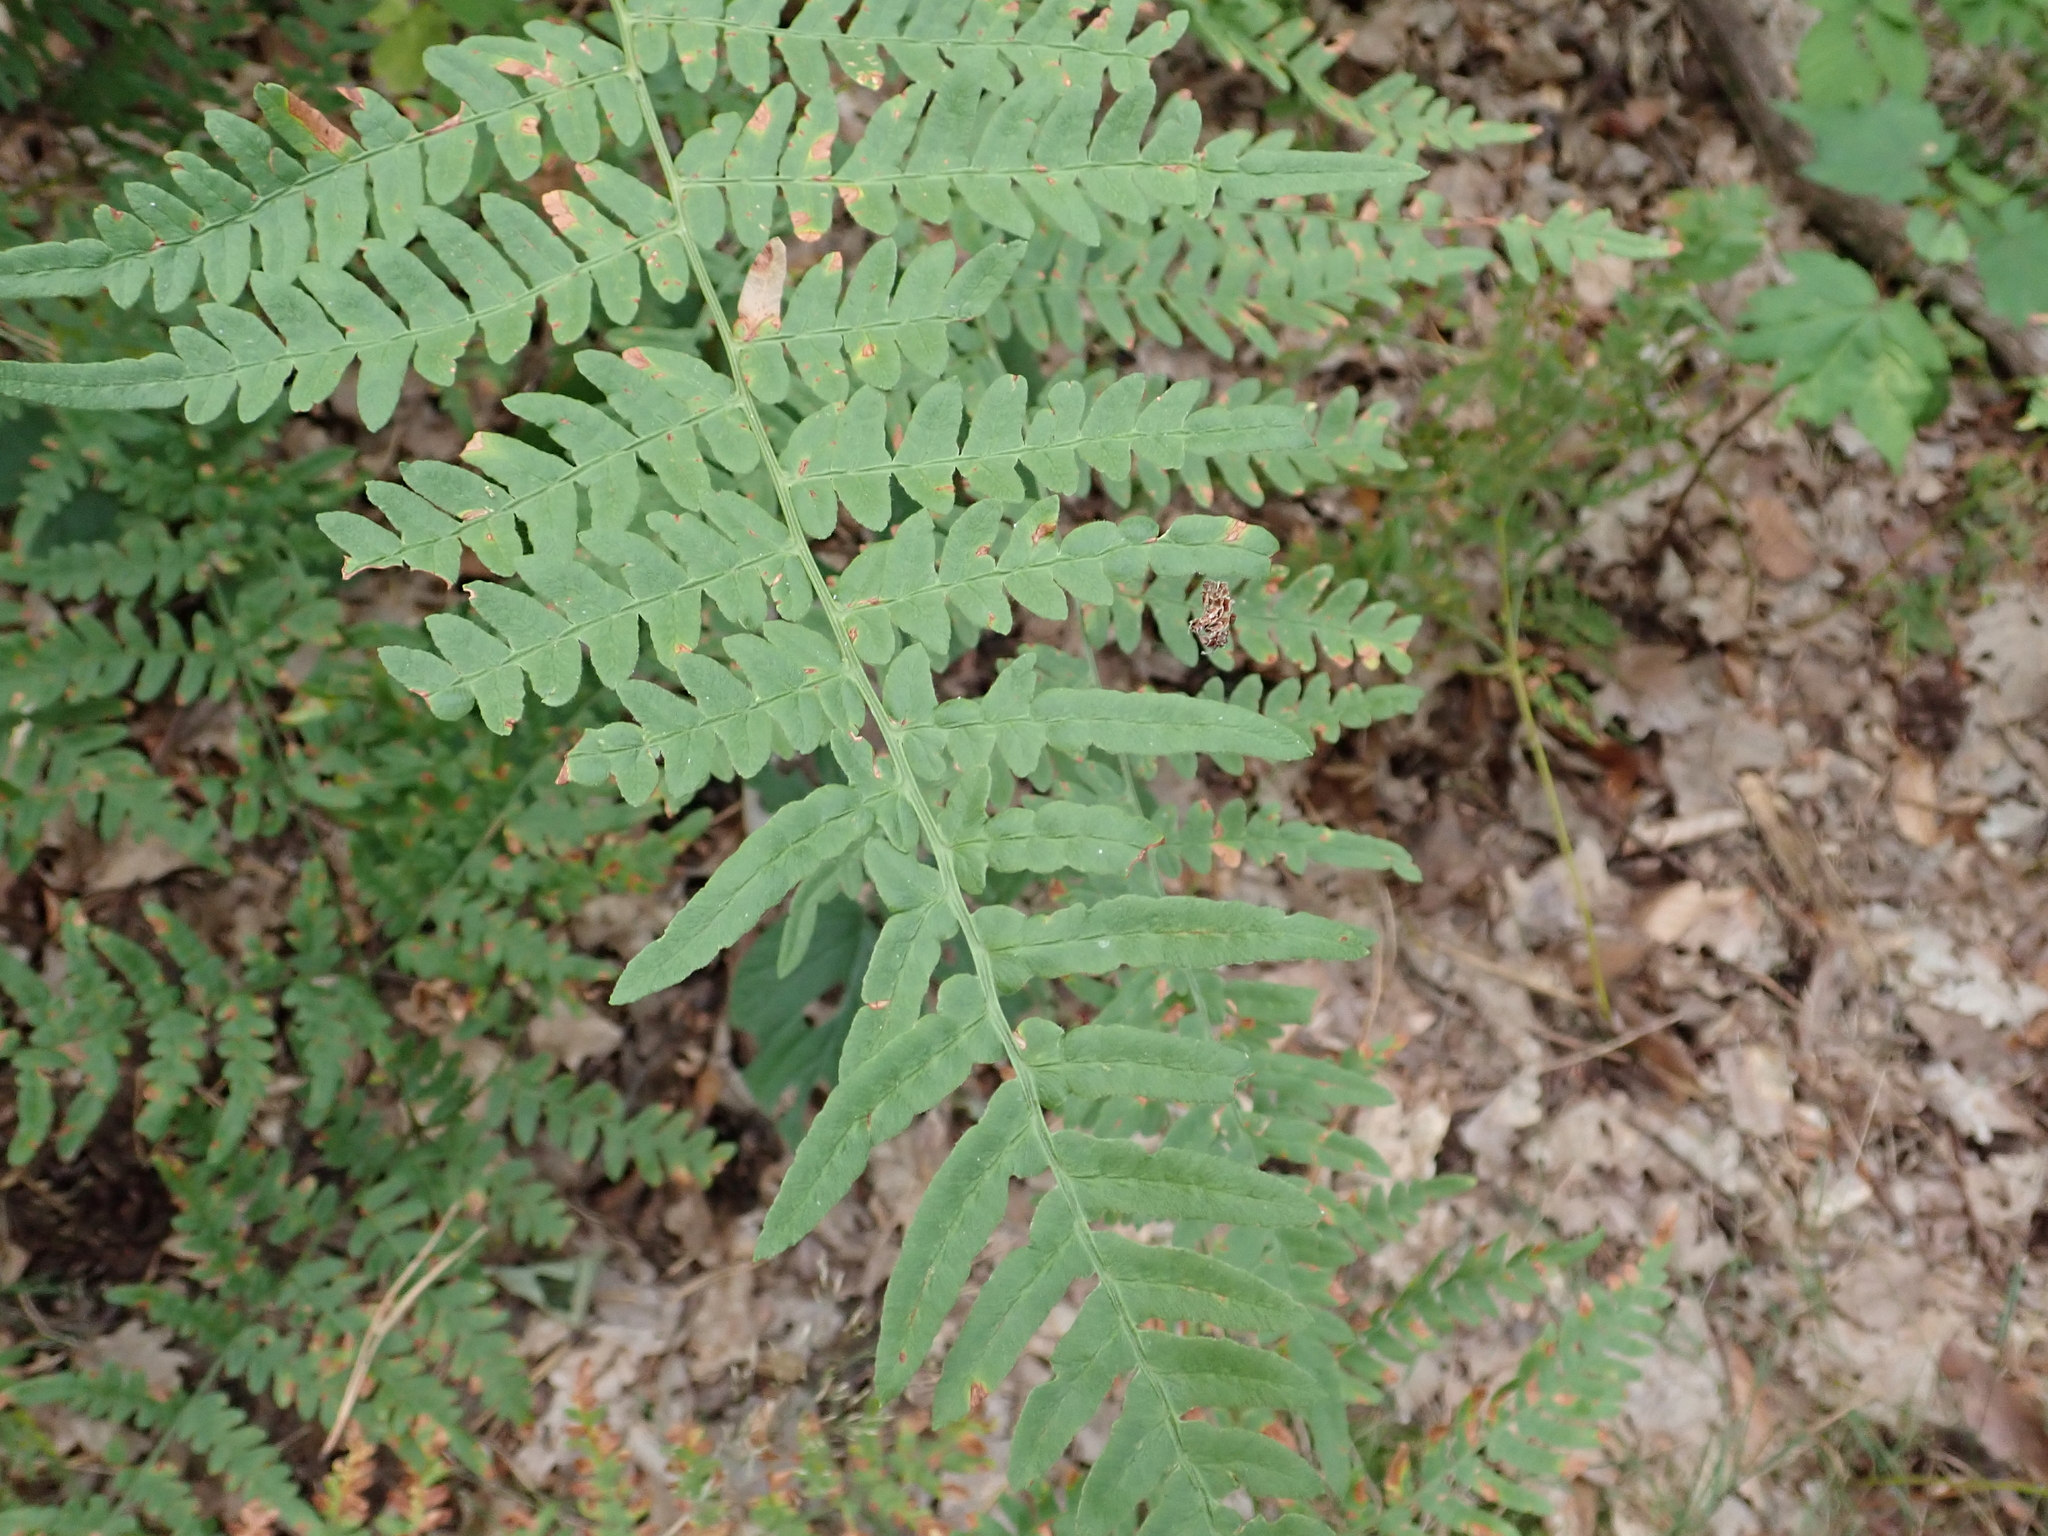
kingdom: Plantae
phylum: Tracheophyta
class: Polypodiopsida
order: Polypodiales
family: Dennstaedtiaceae
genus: Pteridium
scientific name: Pteridium aquilinum
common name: Bracken
